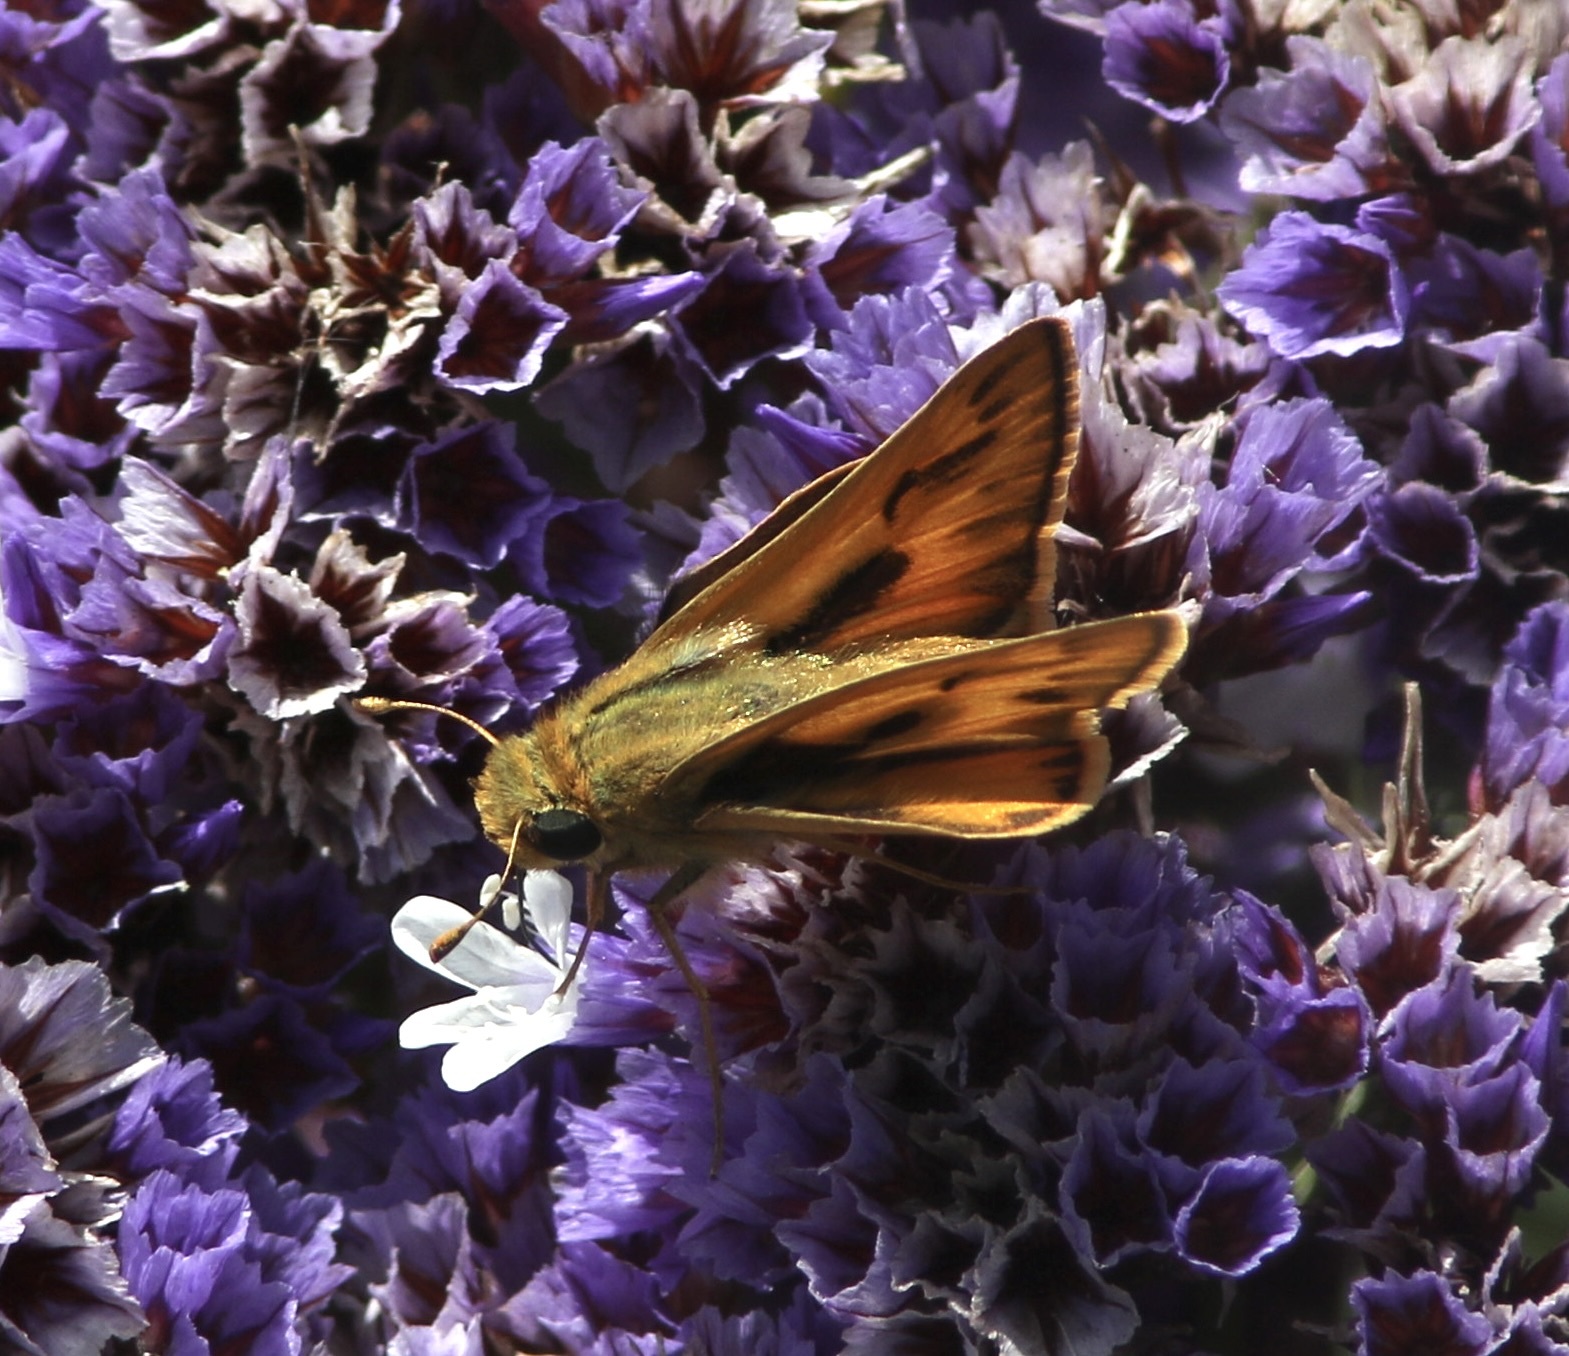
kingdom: Animalia
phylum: Arthropoda
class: Insecta
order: Lepidoptera
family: Hesperiidae
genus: Hylephila
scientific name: Hylephila phyleus
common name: Fiery skipper
